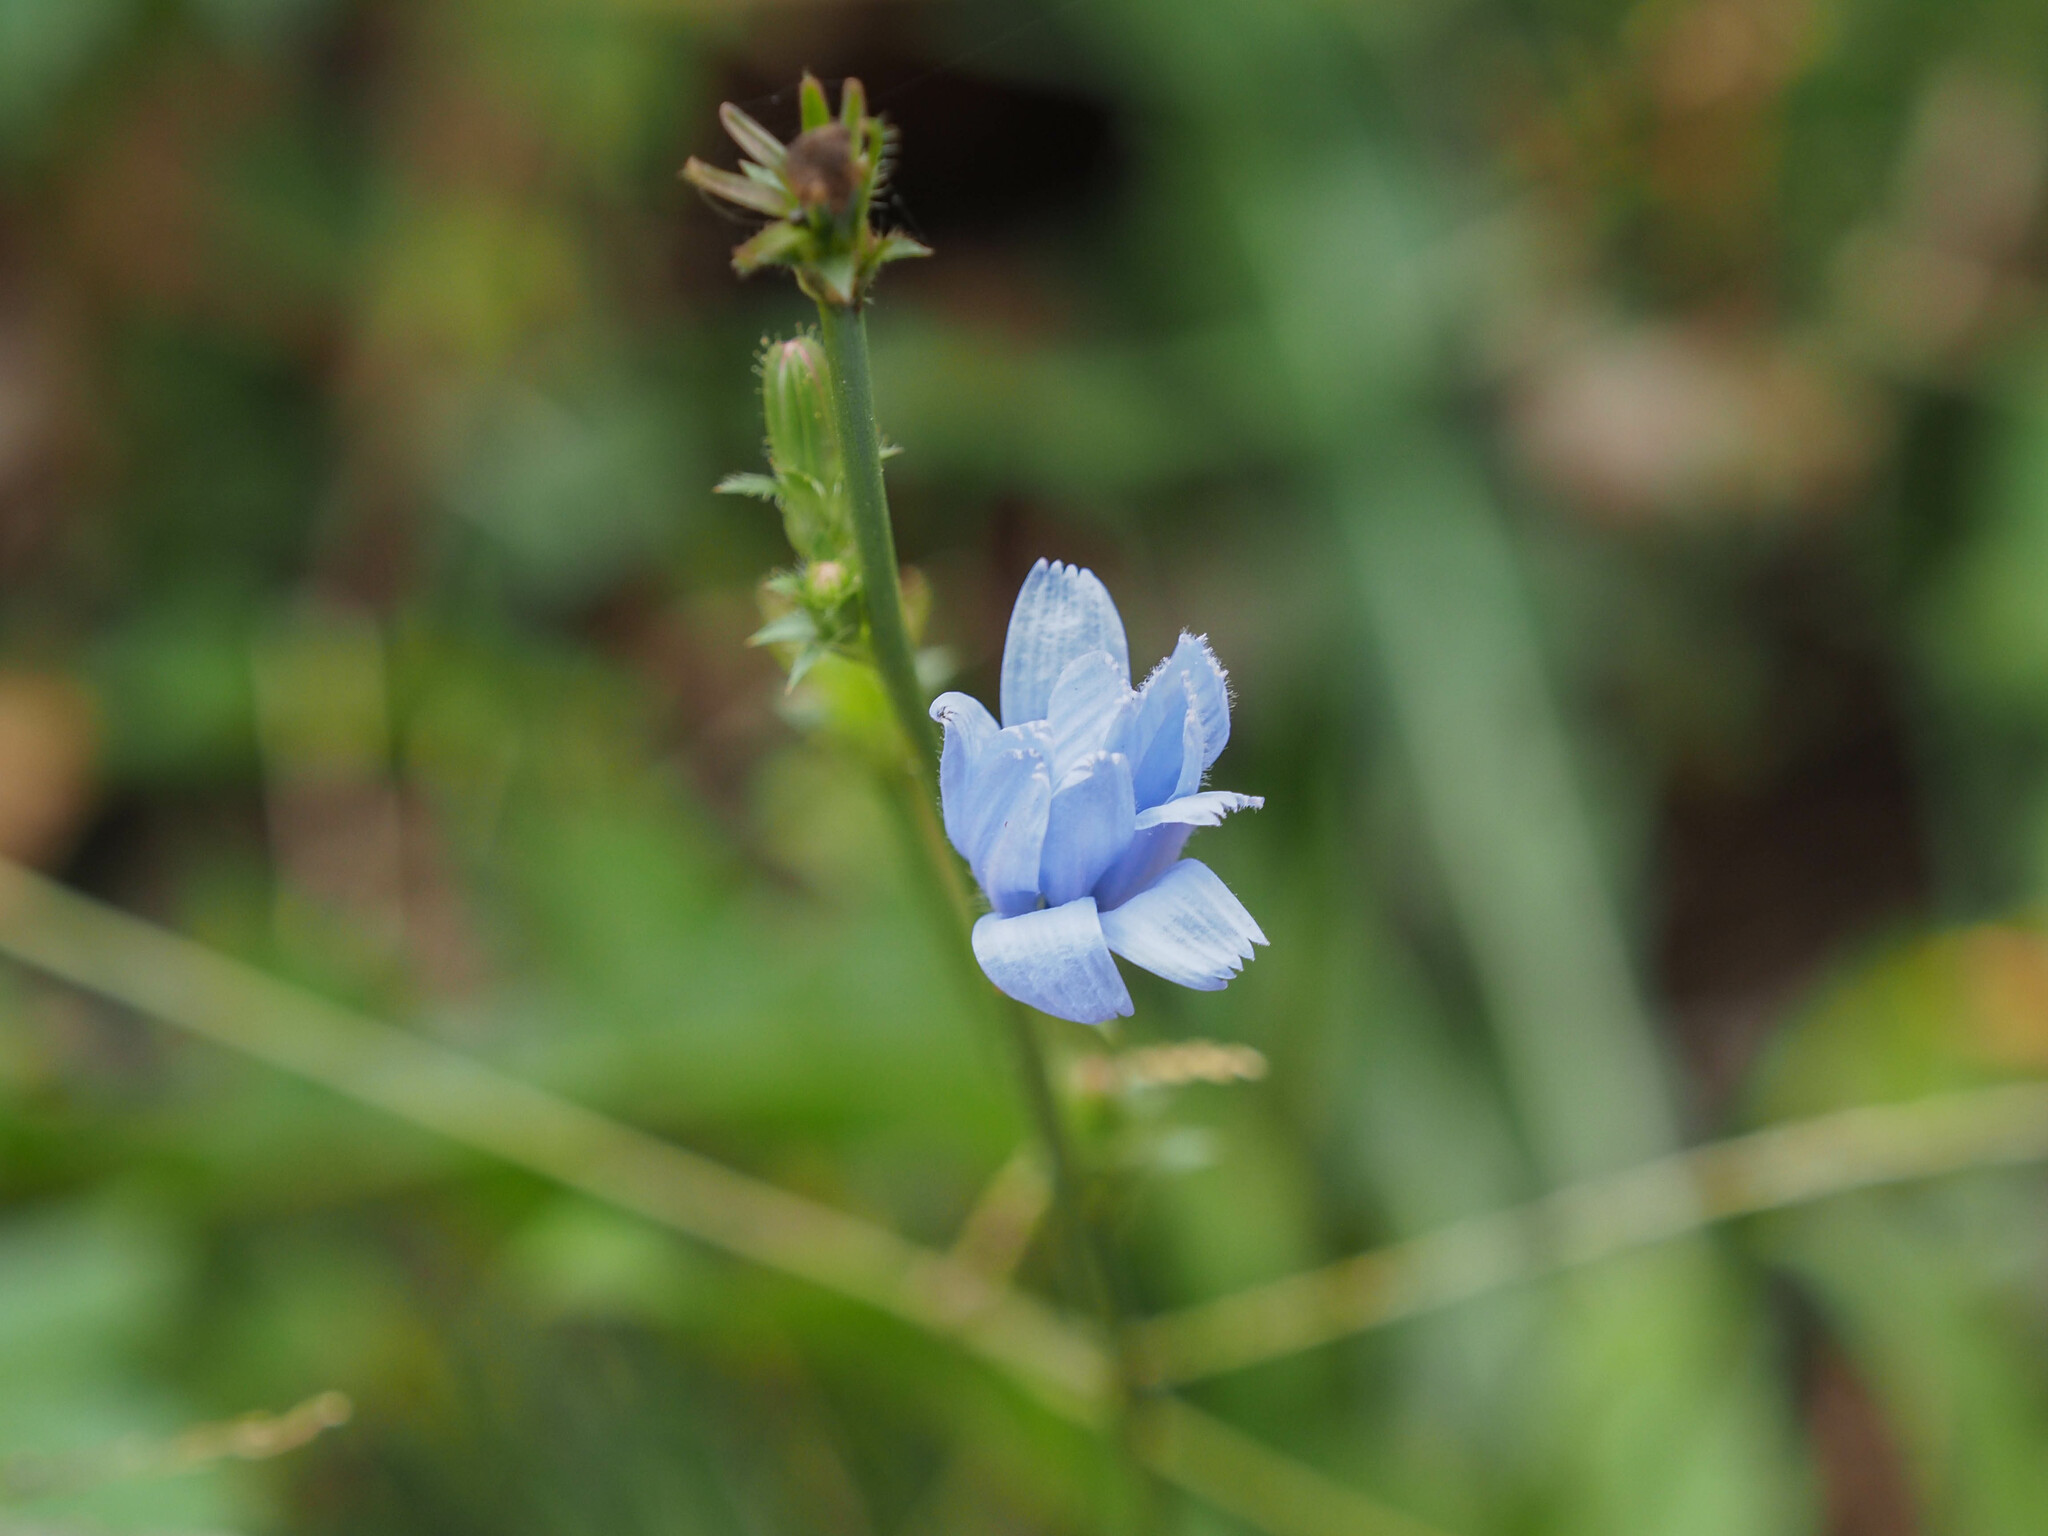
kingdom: Plantae
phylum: Tracheophyta
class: Magnoliopsida
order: Asterales
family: Asteraceae
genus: Cichorium
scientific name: Cichorium intybus
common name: Chicory
